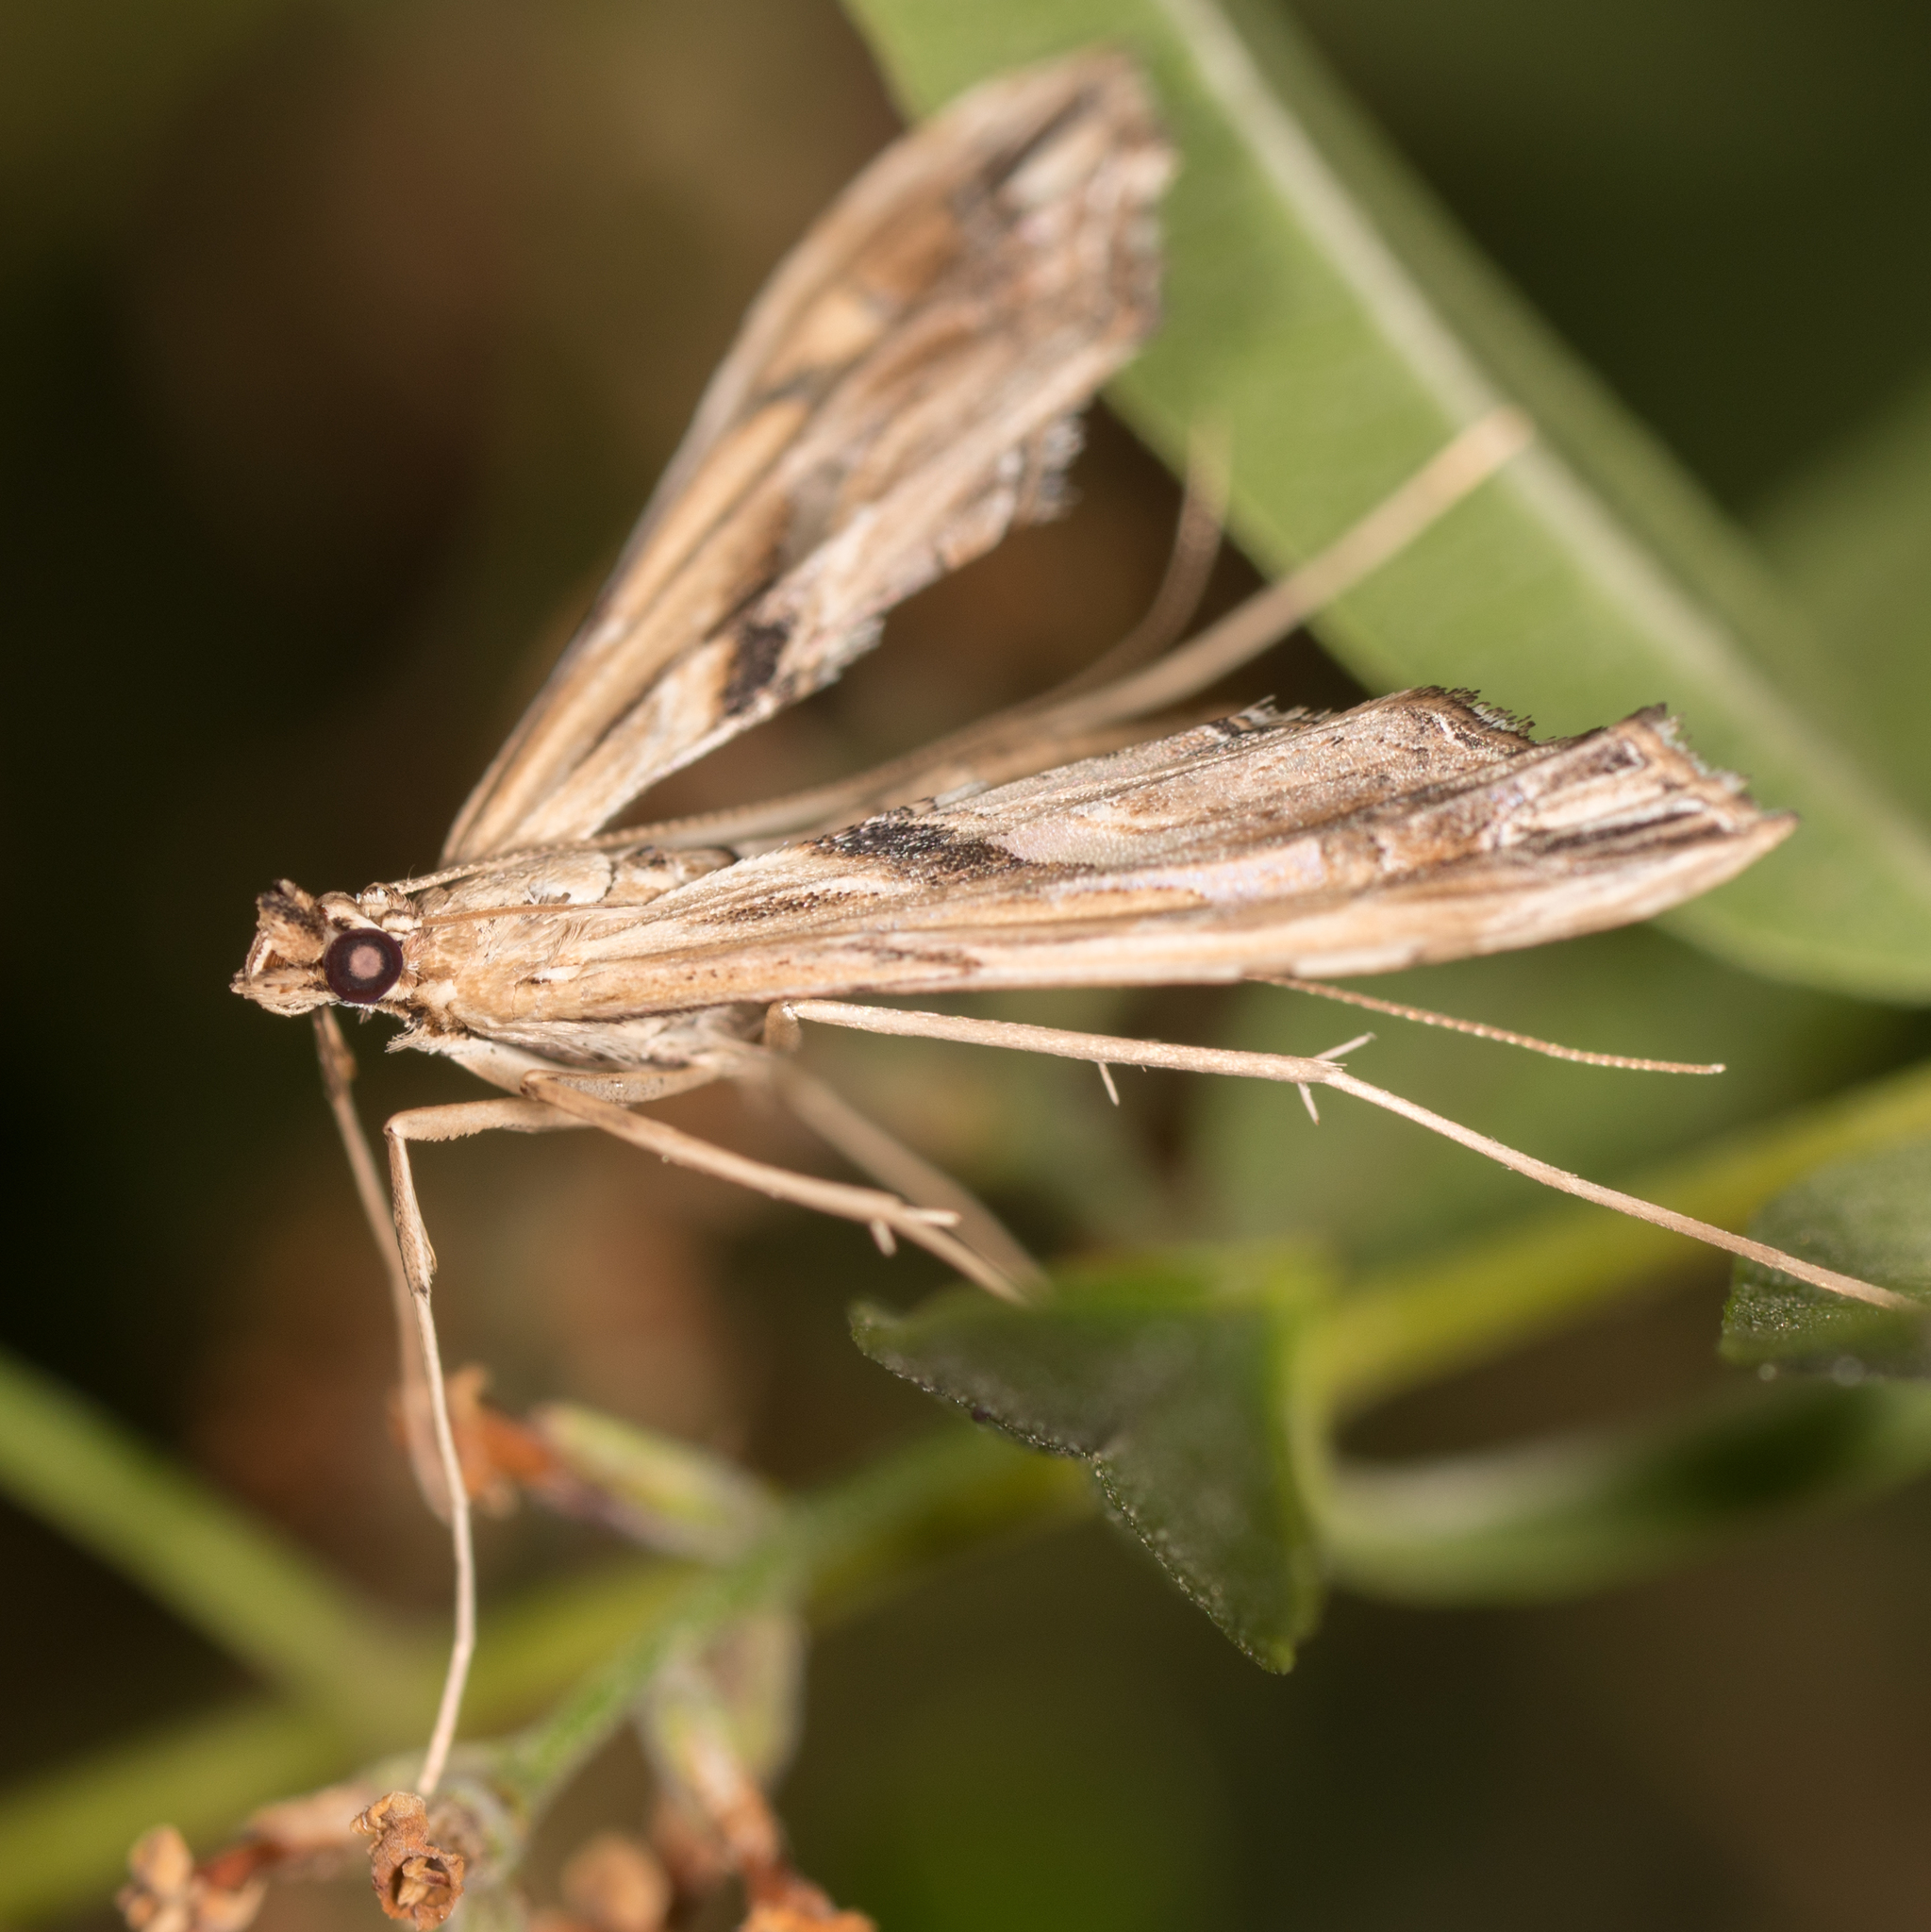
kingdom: Animalia
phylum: Arthropoda
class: Insecta
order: Lepidoptera
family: Crambidae
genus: Lineodes
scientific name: Lineodes elcodes
